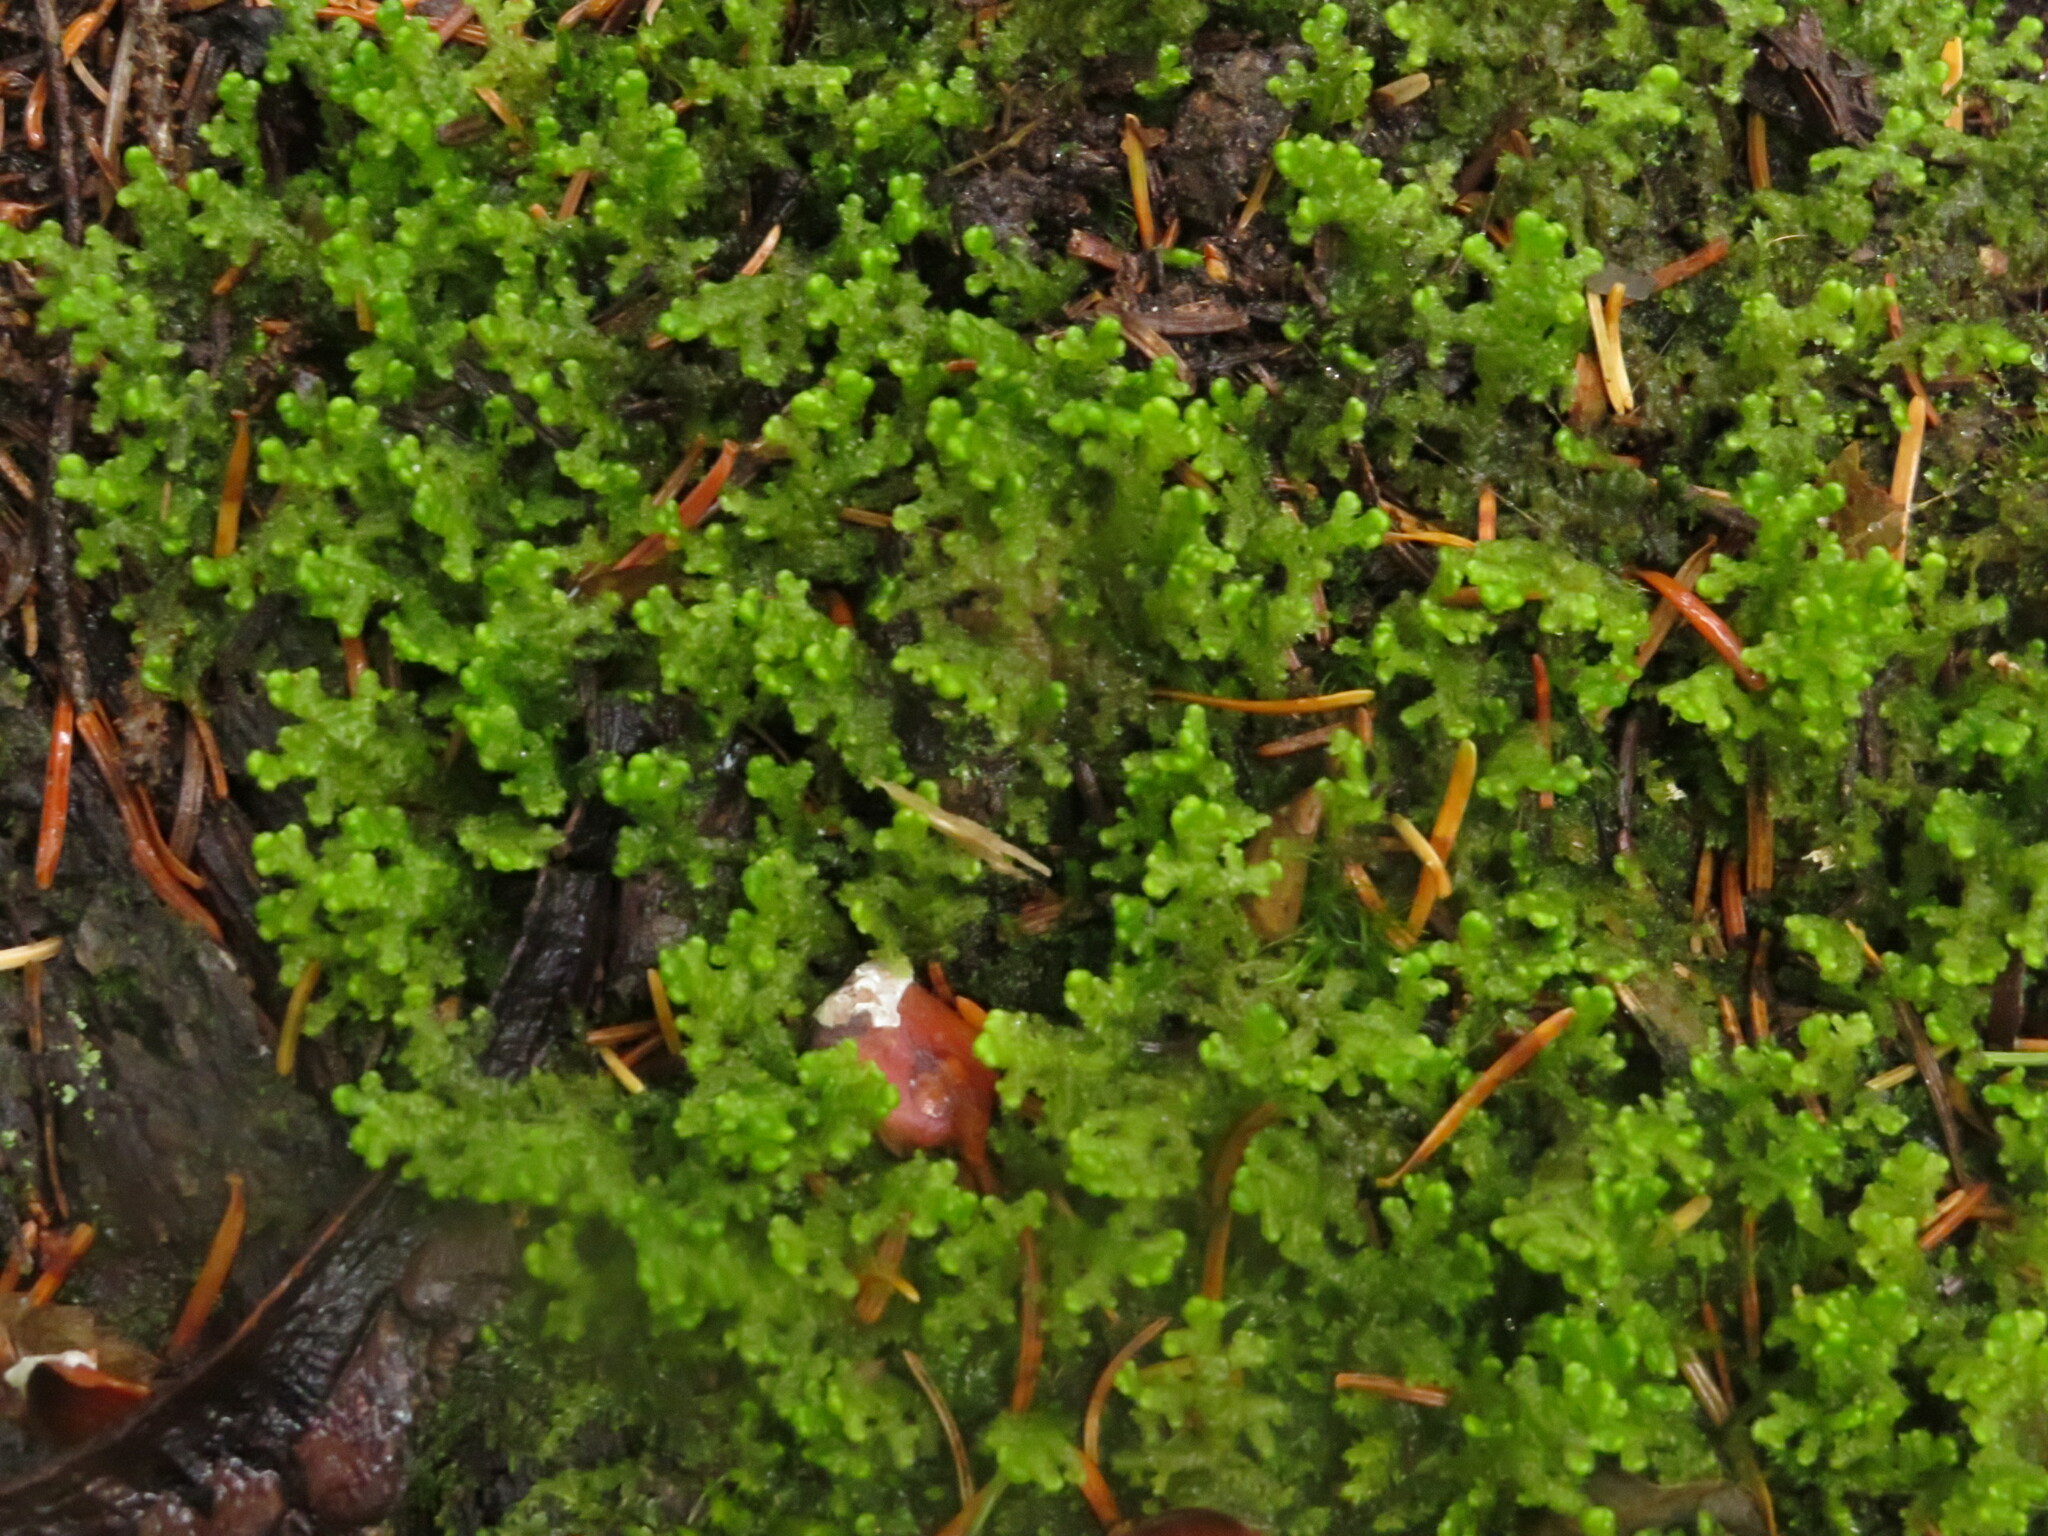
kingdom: Plantae
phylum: Marchantiophyta
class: Jungermanniopsida
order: Ptilidiales
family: Ptilidiaceae
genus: Ptilidium
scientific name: Ptilidium ciliare
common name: Ciliate fringewort
